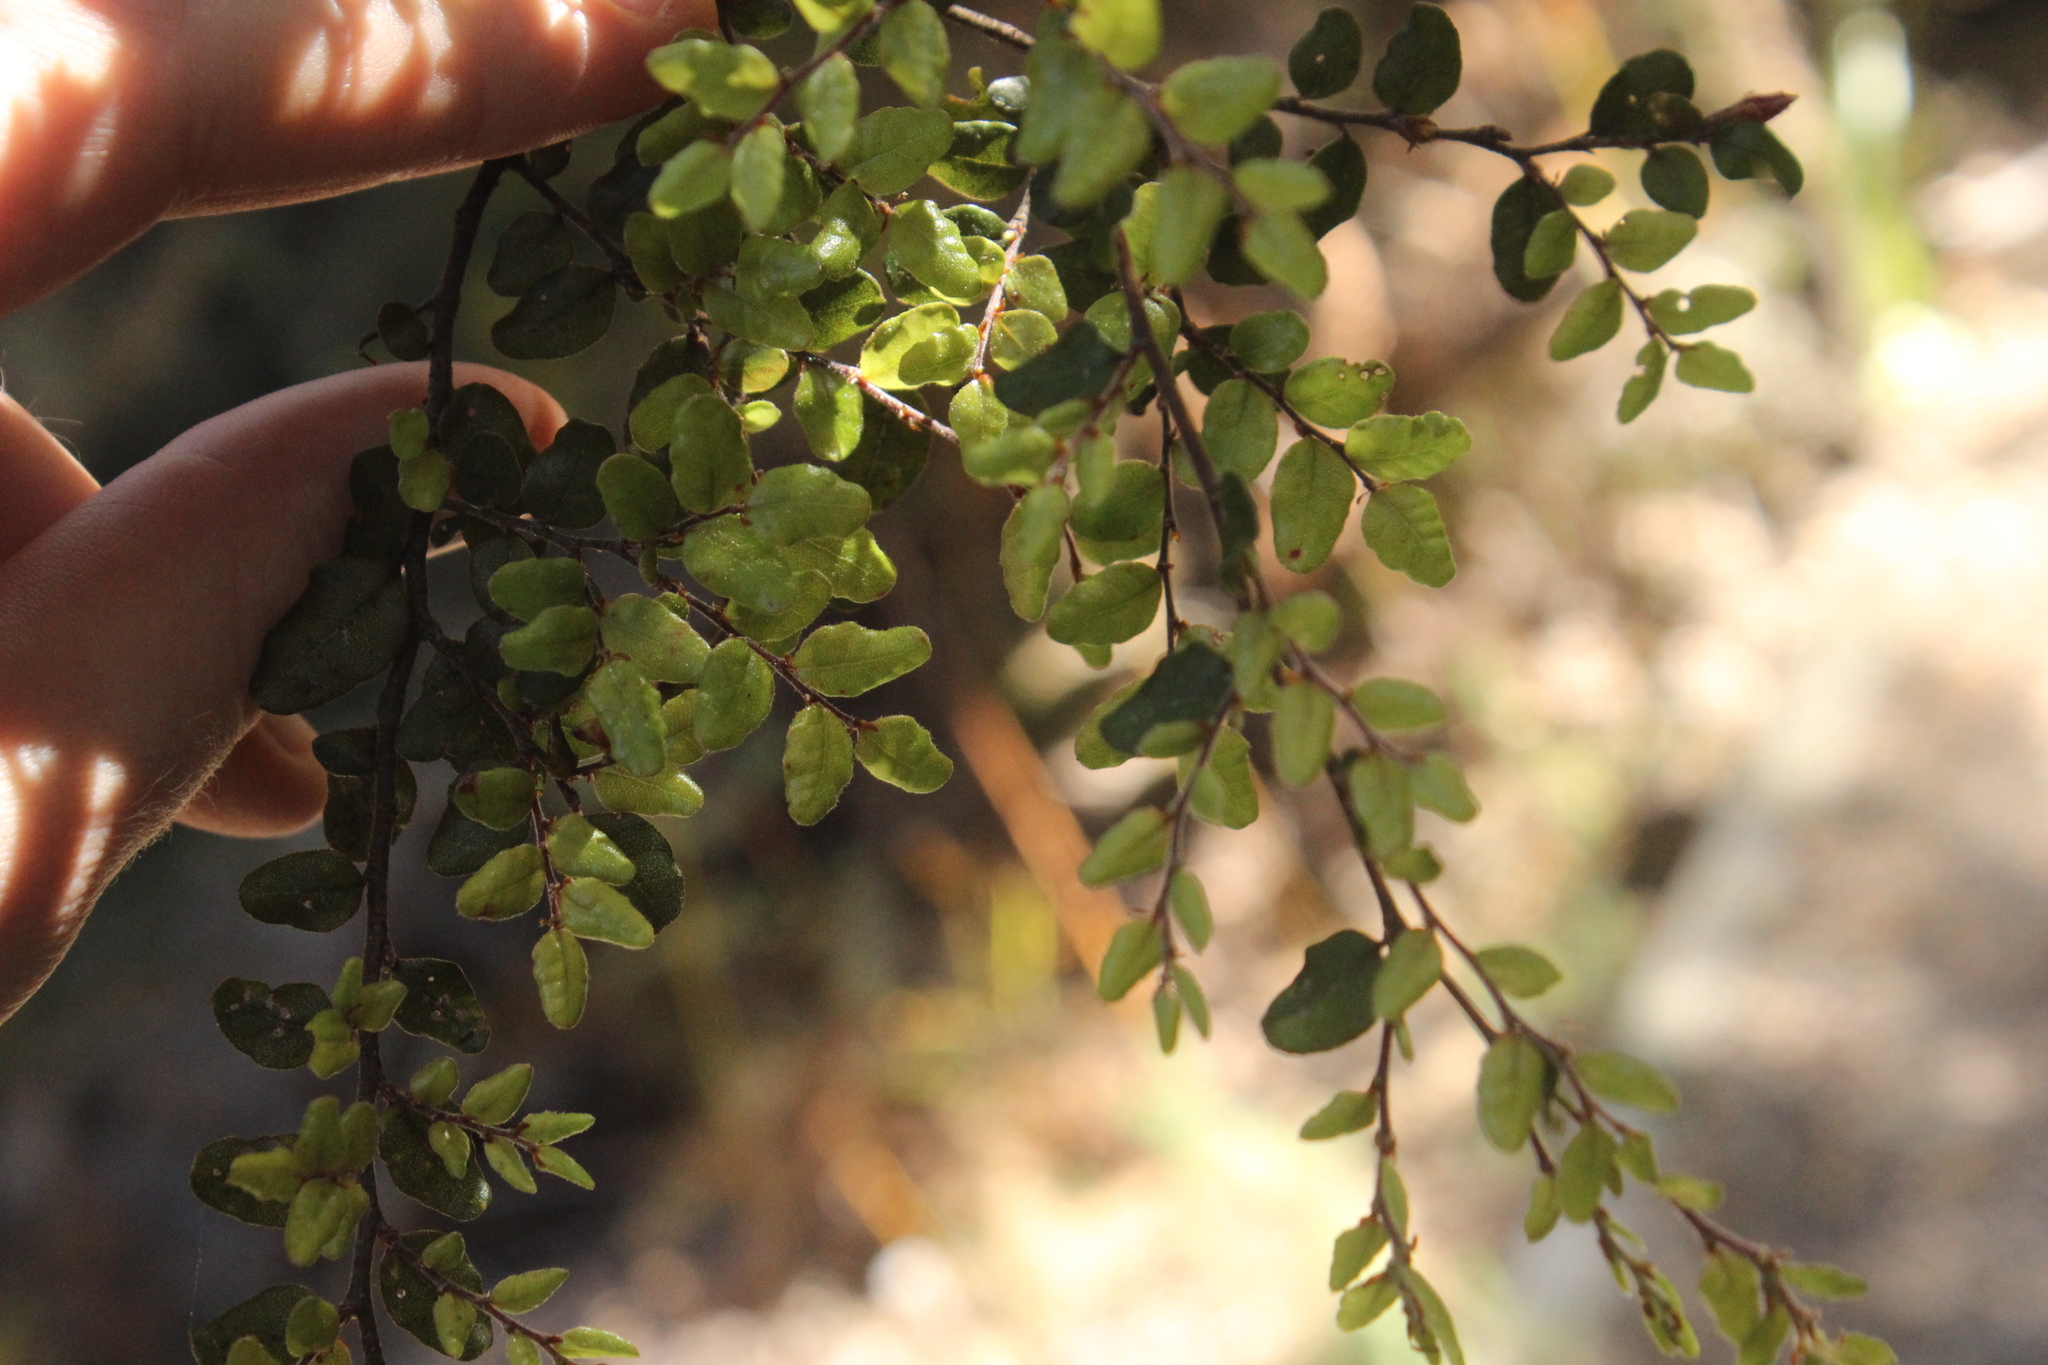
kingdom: Plantae
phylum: Tracheophyta
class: Magnoliopsida
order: Fagales
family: Nothofagaceae
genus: Nothofagus
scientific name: Nothofagus solandri
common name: Black beech
